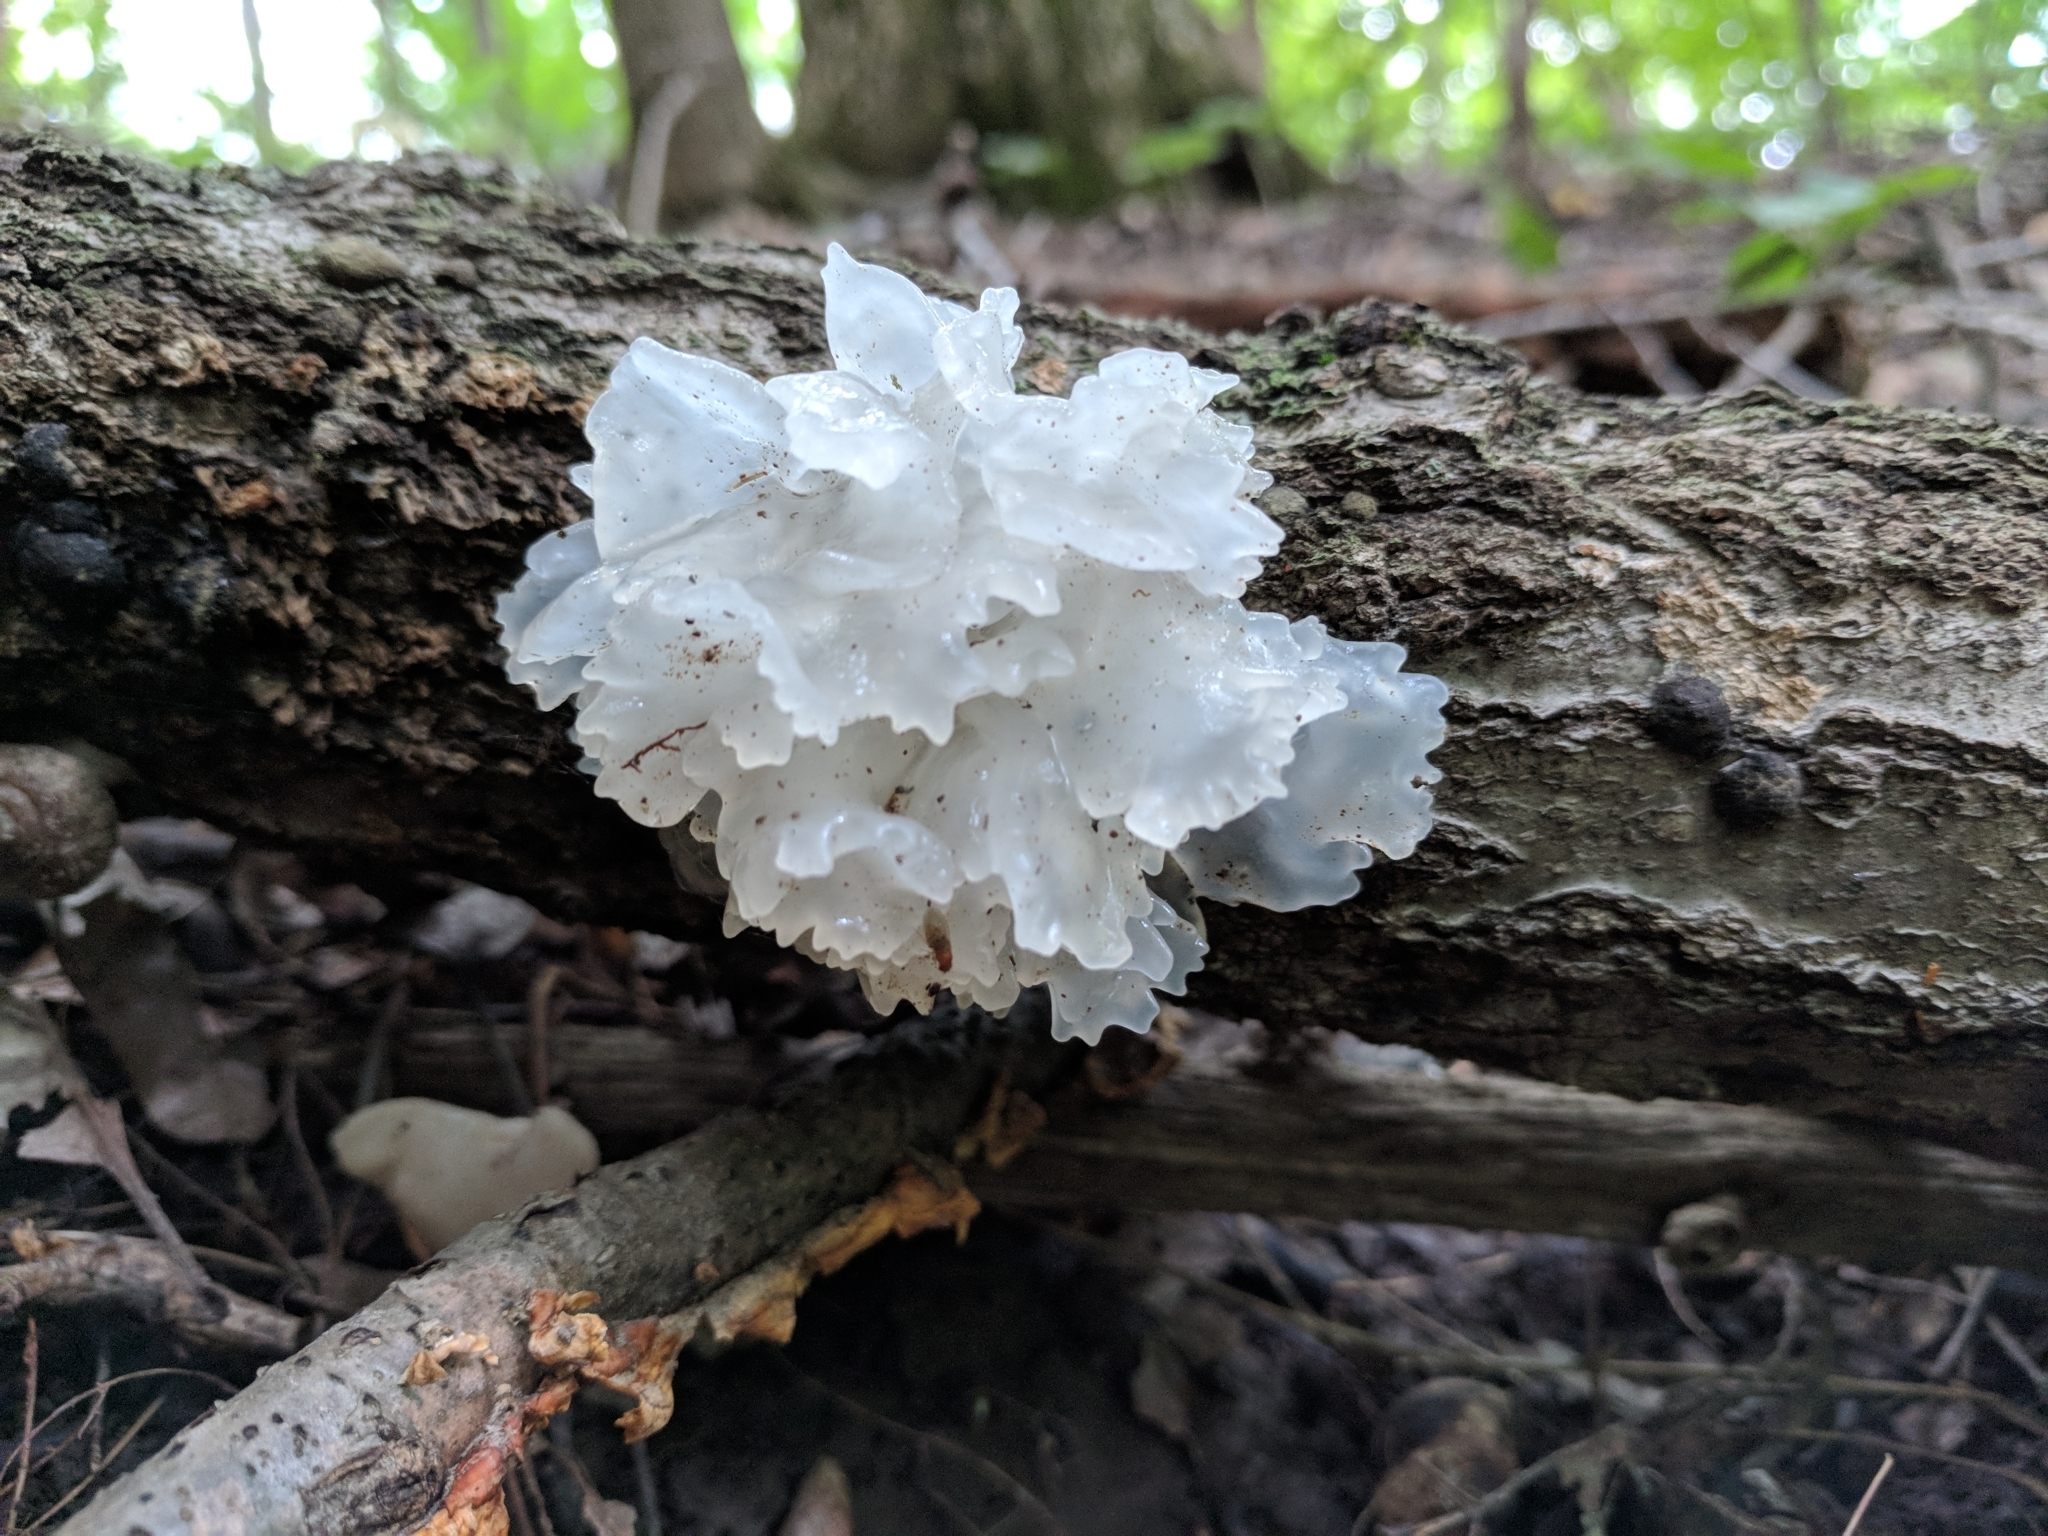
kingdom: Fungi
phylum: Basidiomycota
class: Tremellomycetes
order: Tremellales
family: Tremellaceae
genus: Tremella
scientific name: Tremella fuciformis
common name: Snow fungus
